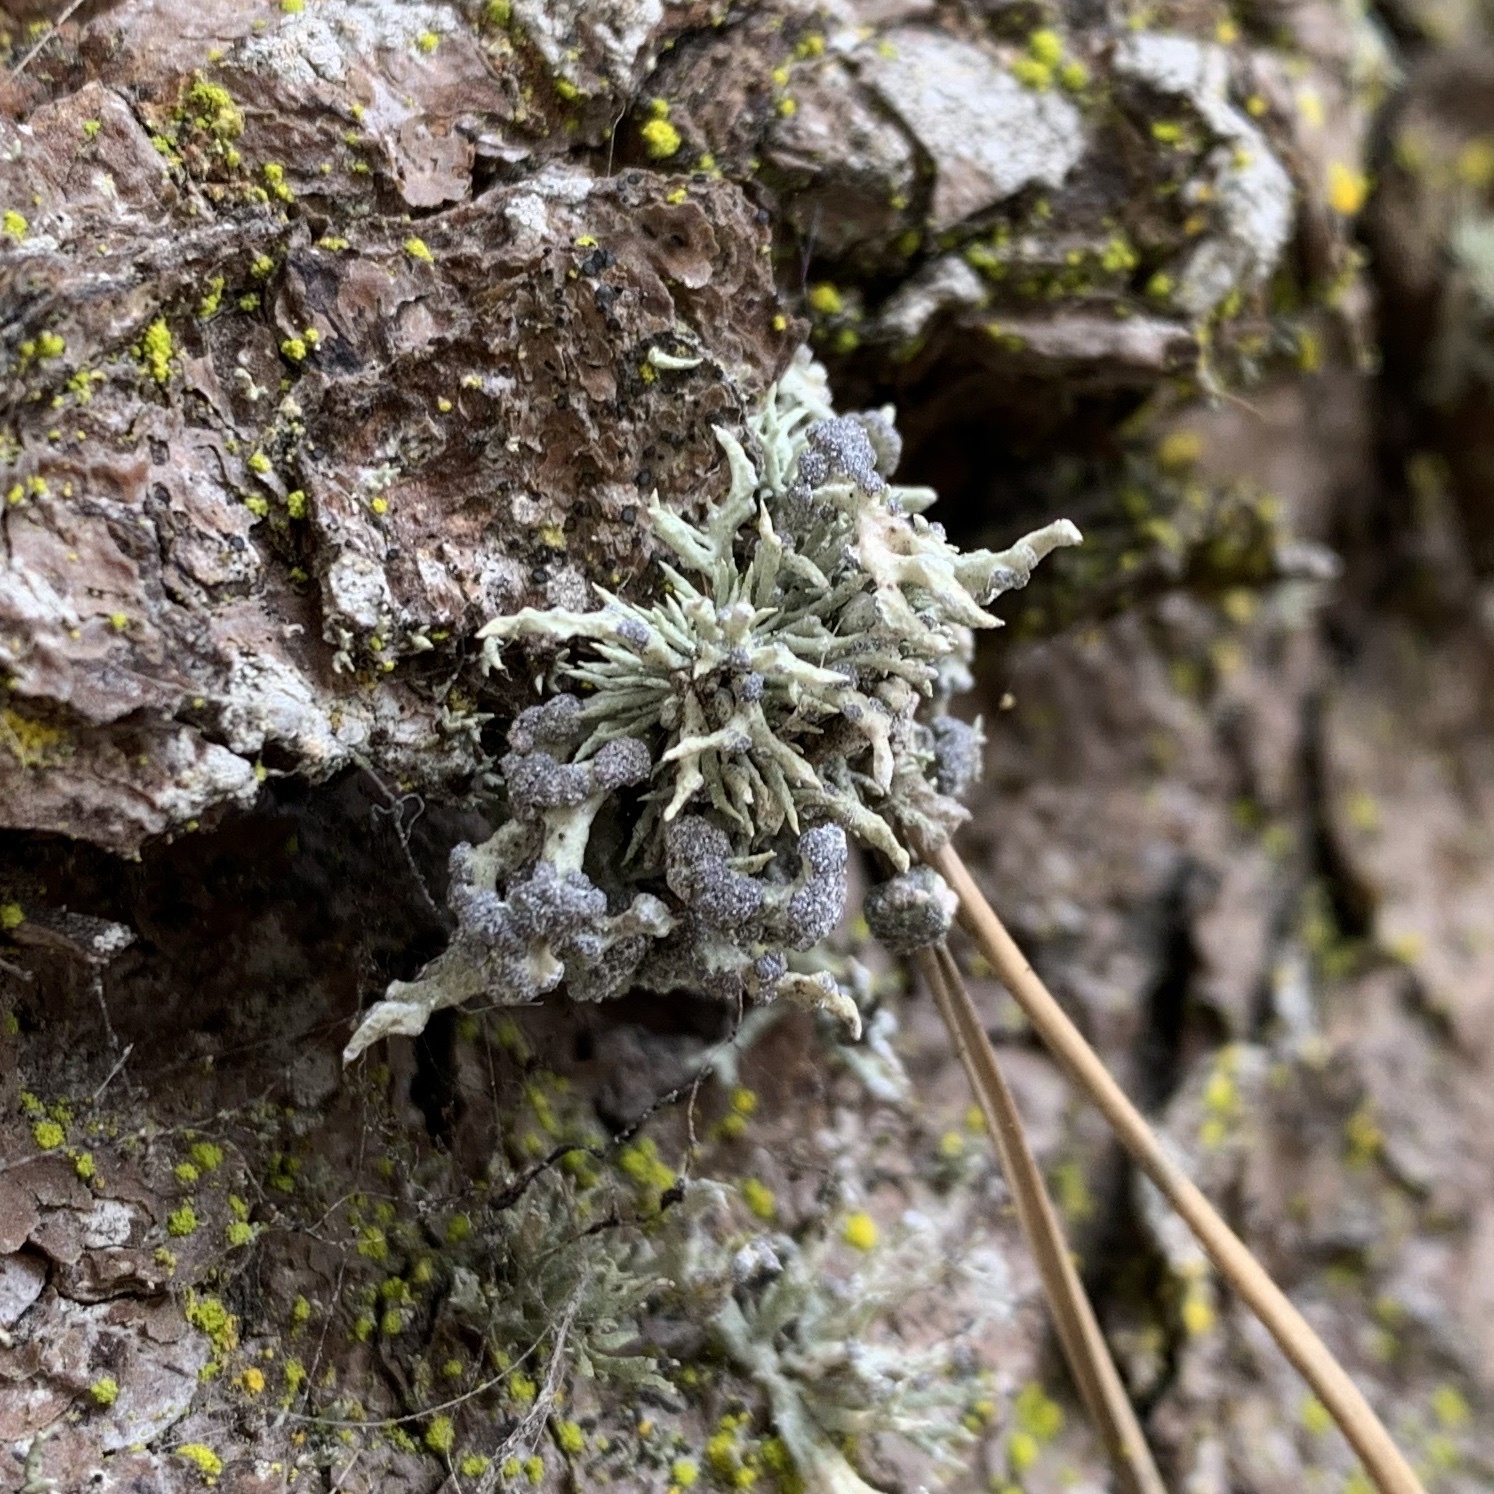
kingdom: Fungi
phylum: Ascomycota
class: Lecanoromycetes
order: Lecanorales
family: Ramalinaceae
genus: Niebla
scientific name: Niebla cephalota
